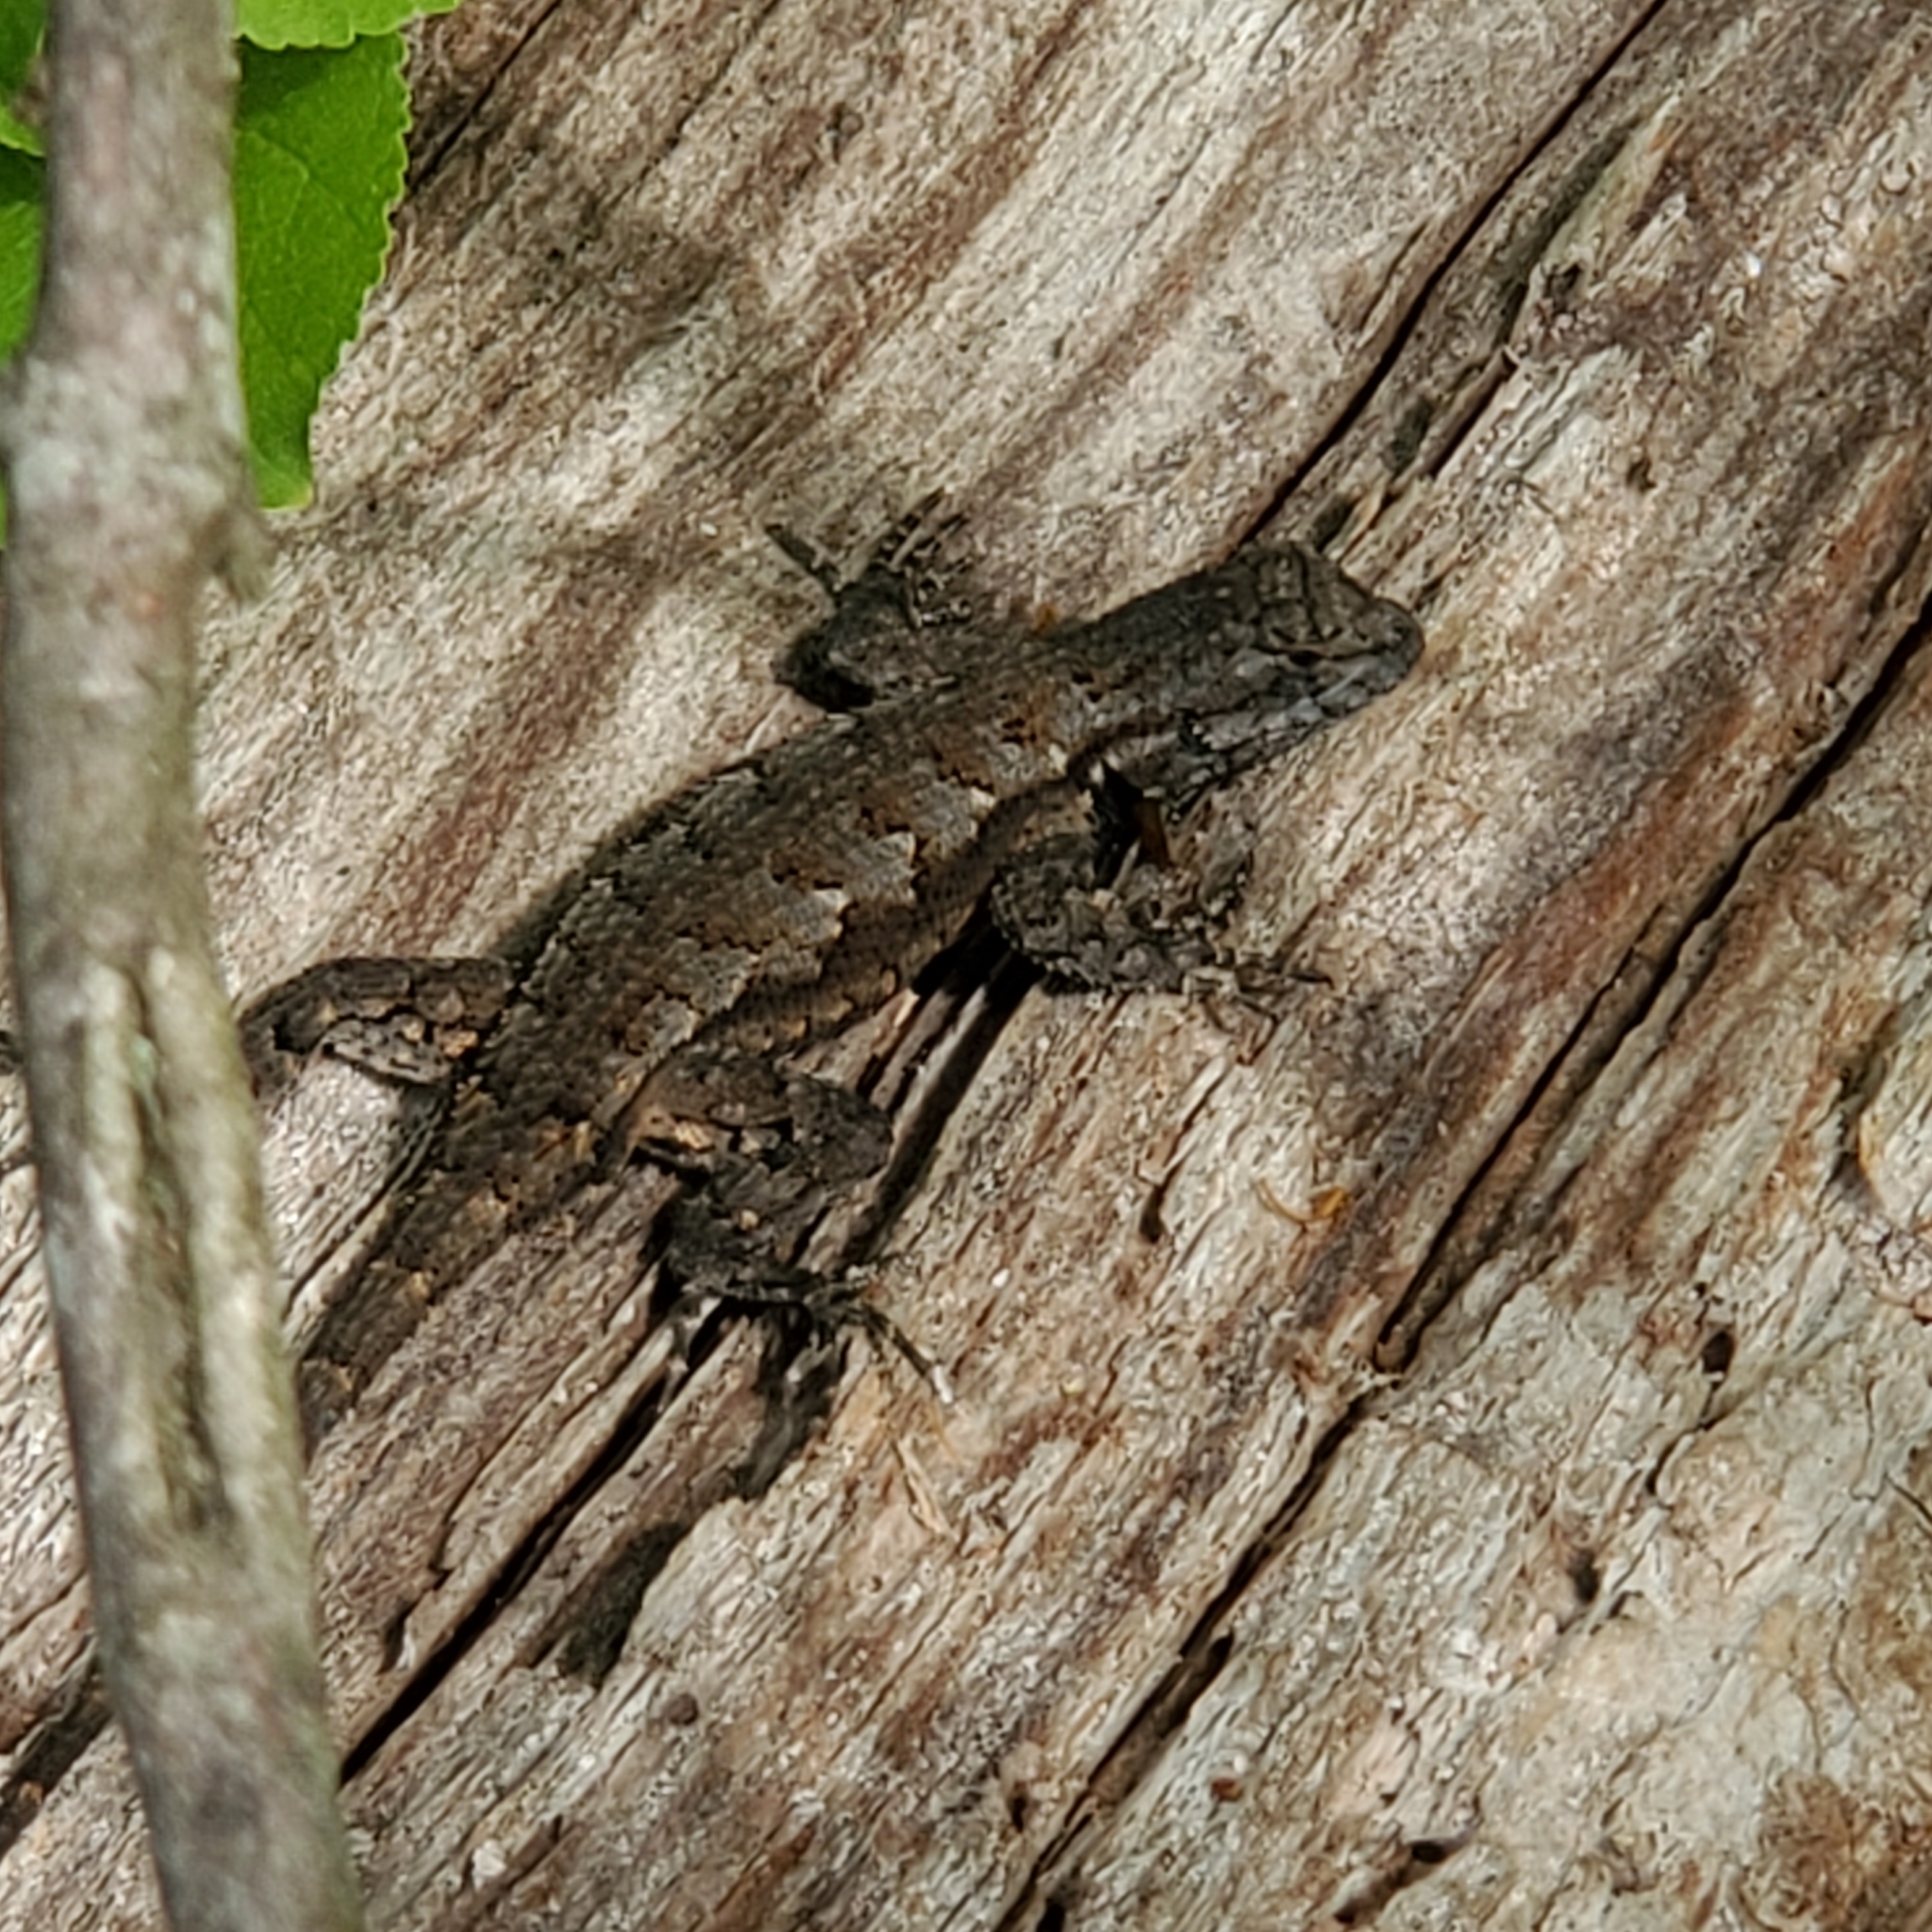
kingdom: Animalia
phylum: Chordata
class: Squamata
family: Phrynosomatidae
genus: Sceloporus
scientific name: Sceloporus undulatus
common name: Eastern fence lizard
